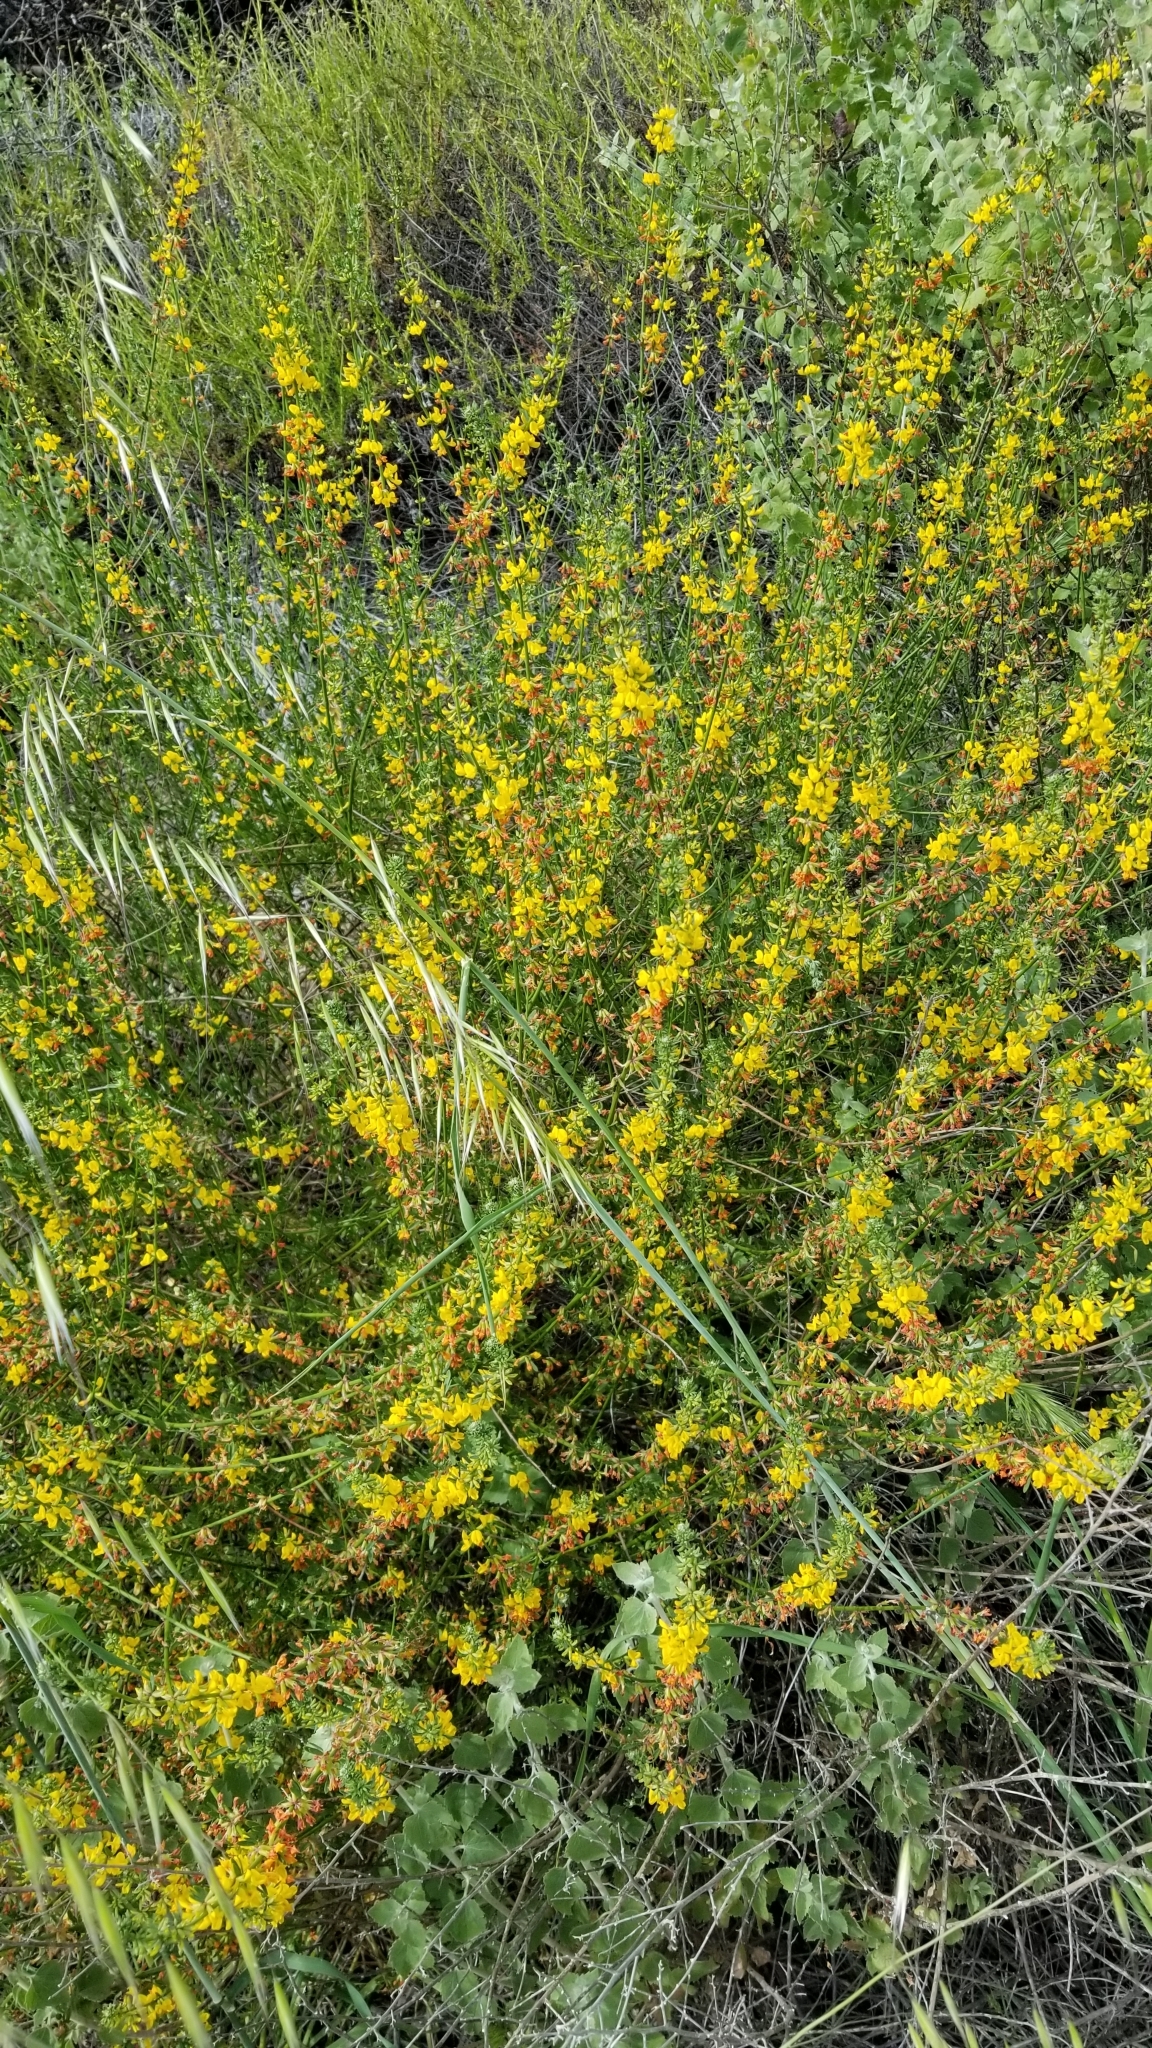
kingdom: Plantae
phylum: Tracheophyta
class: Magnoliopsida
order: Fabales
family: Fabaceae
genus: Acmispon
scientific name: Acmispon glaber
